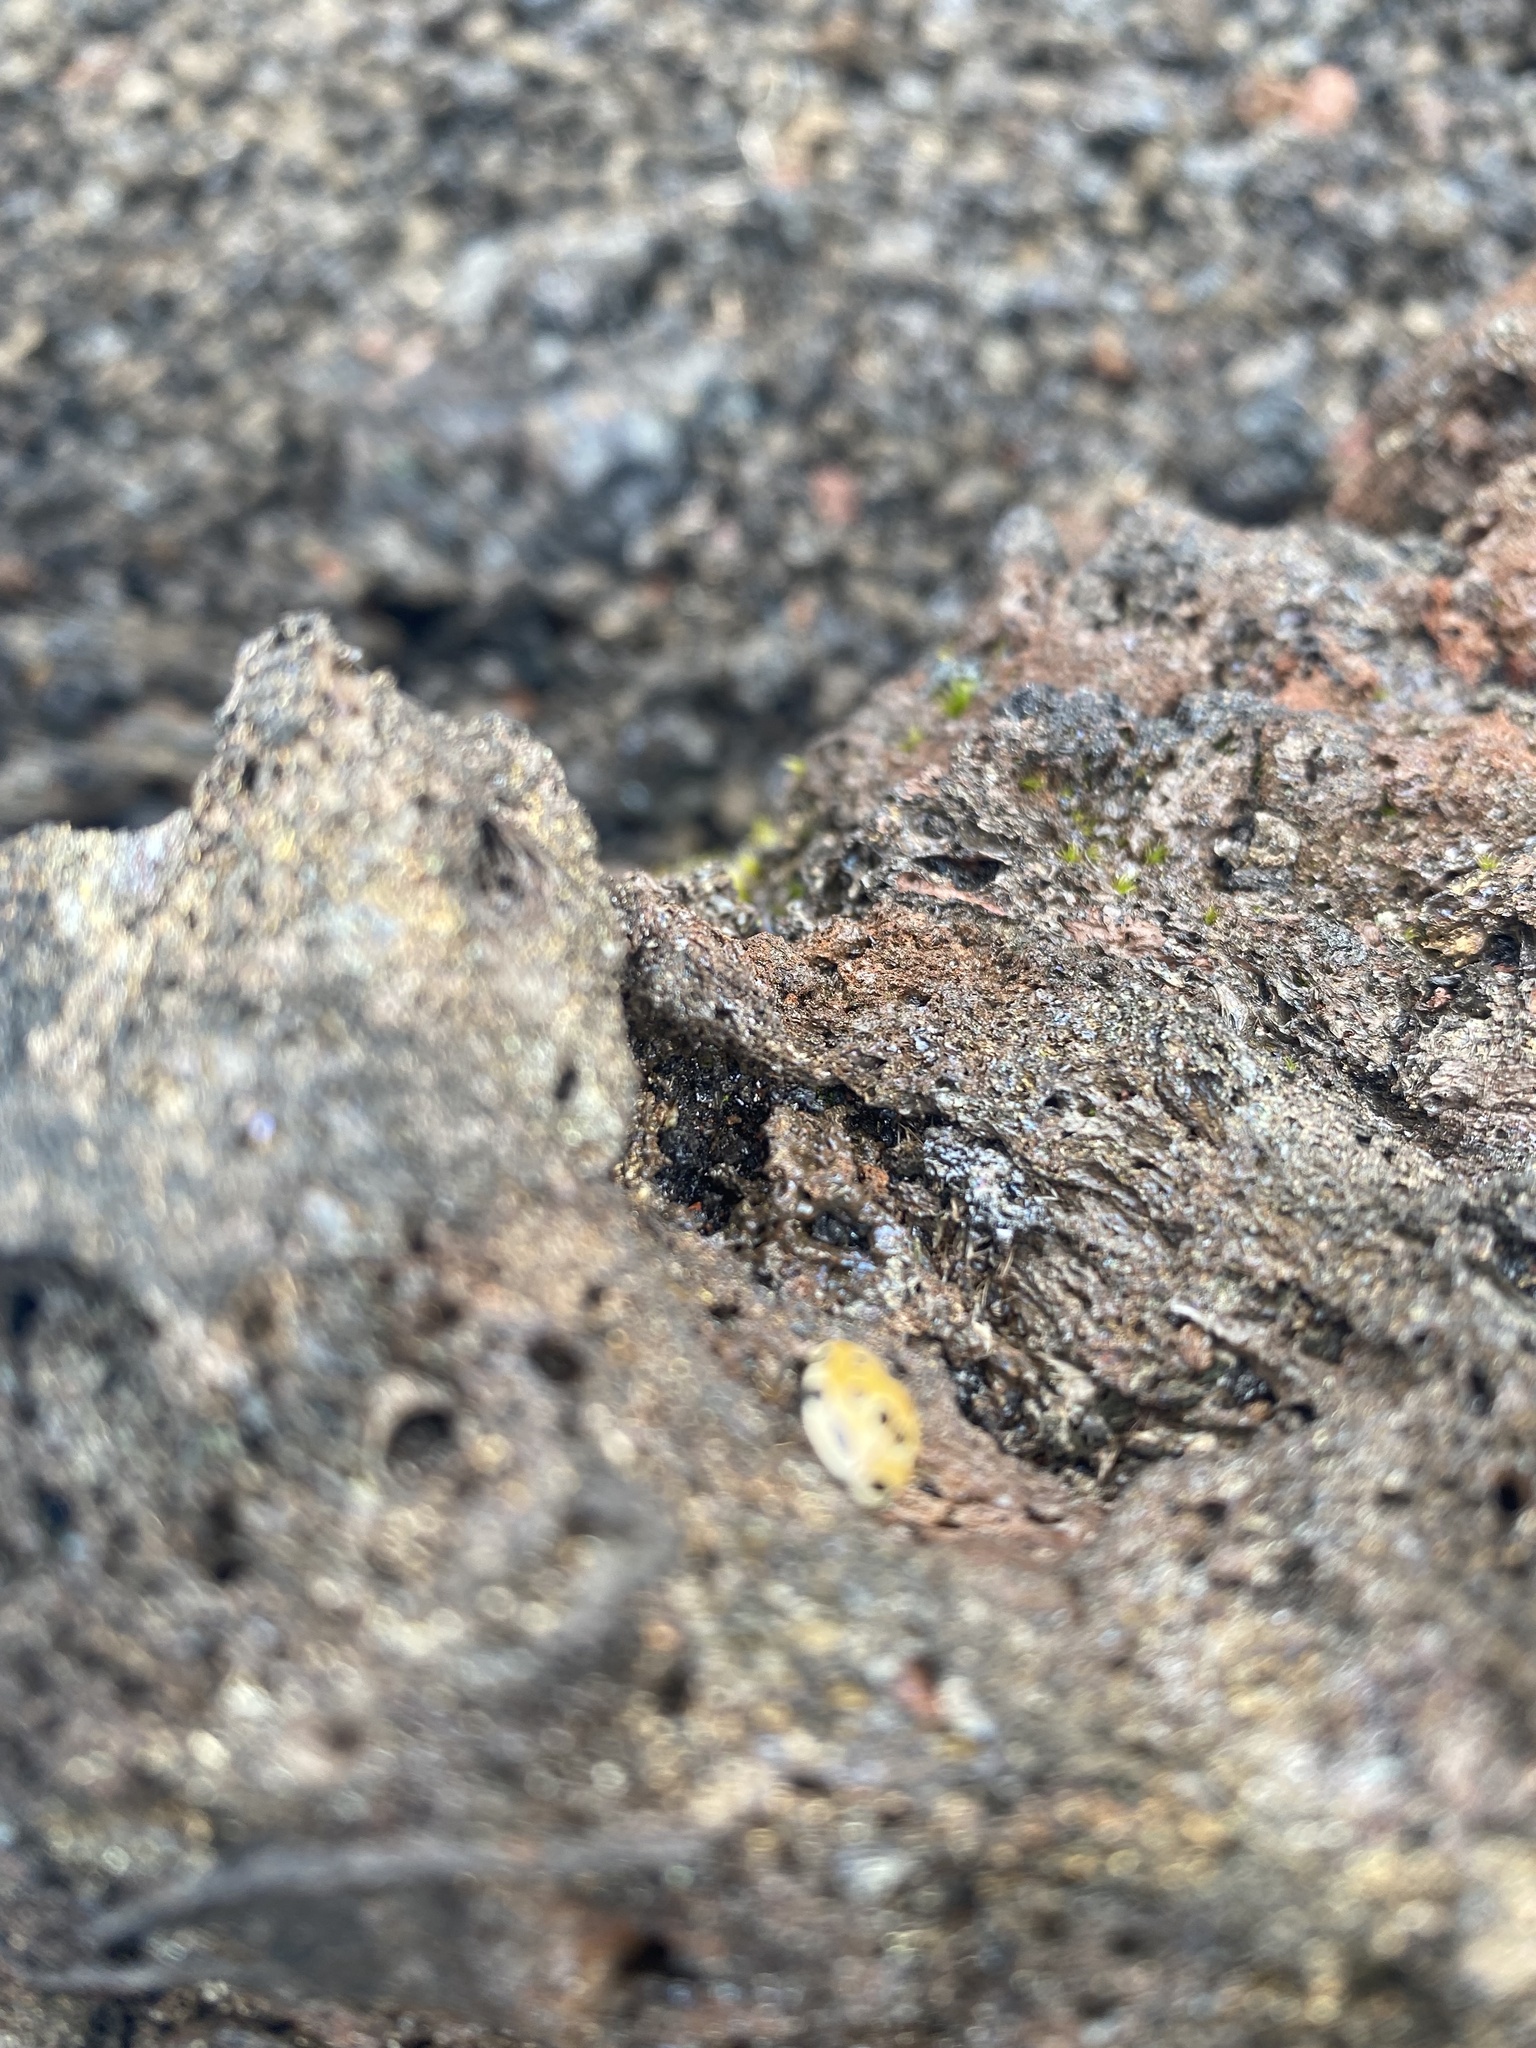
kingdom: Animalia
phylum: Arthropoda
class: Insecta
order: Coleoptera
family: Coccinellidae
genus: Anatis
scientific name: Anatis ocellata
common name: Eyed ladybird
